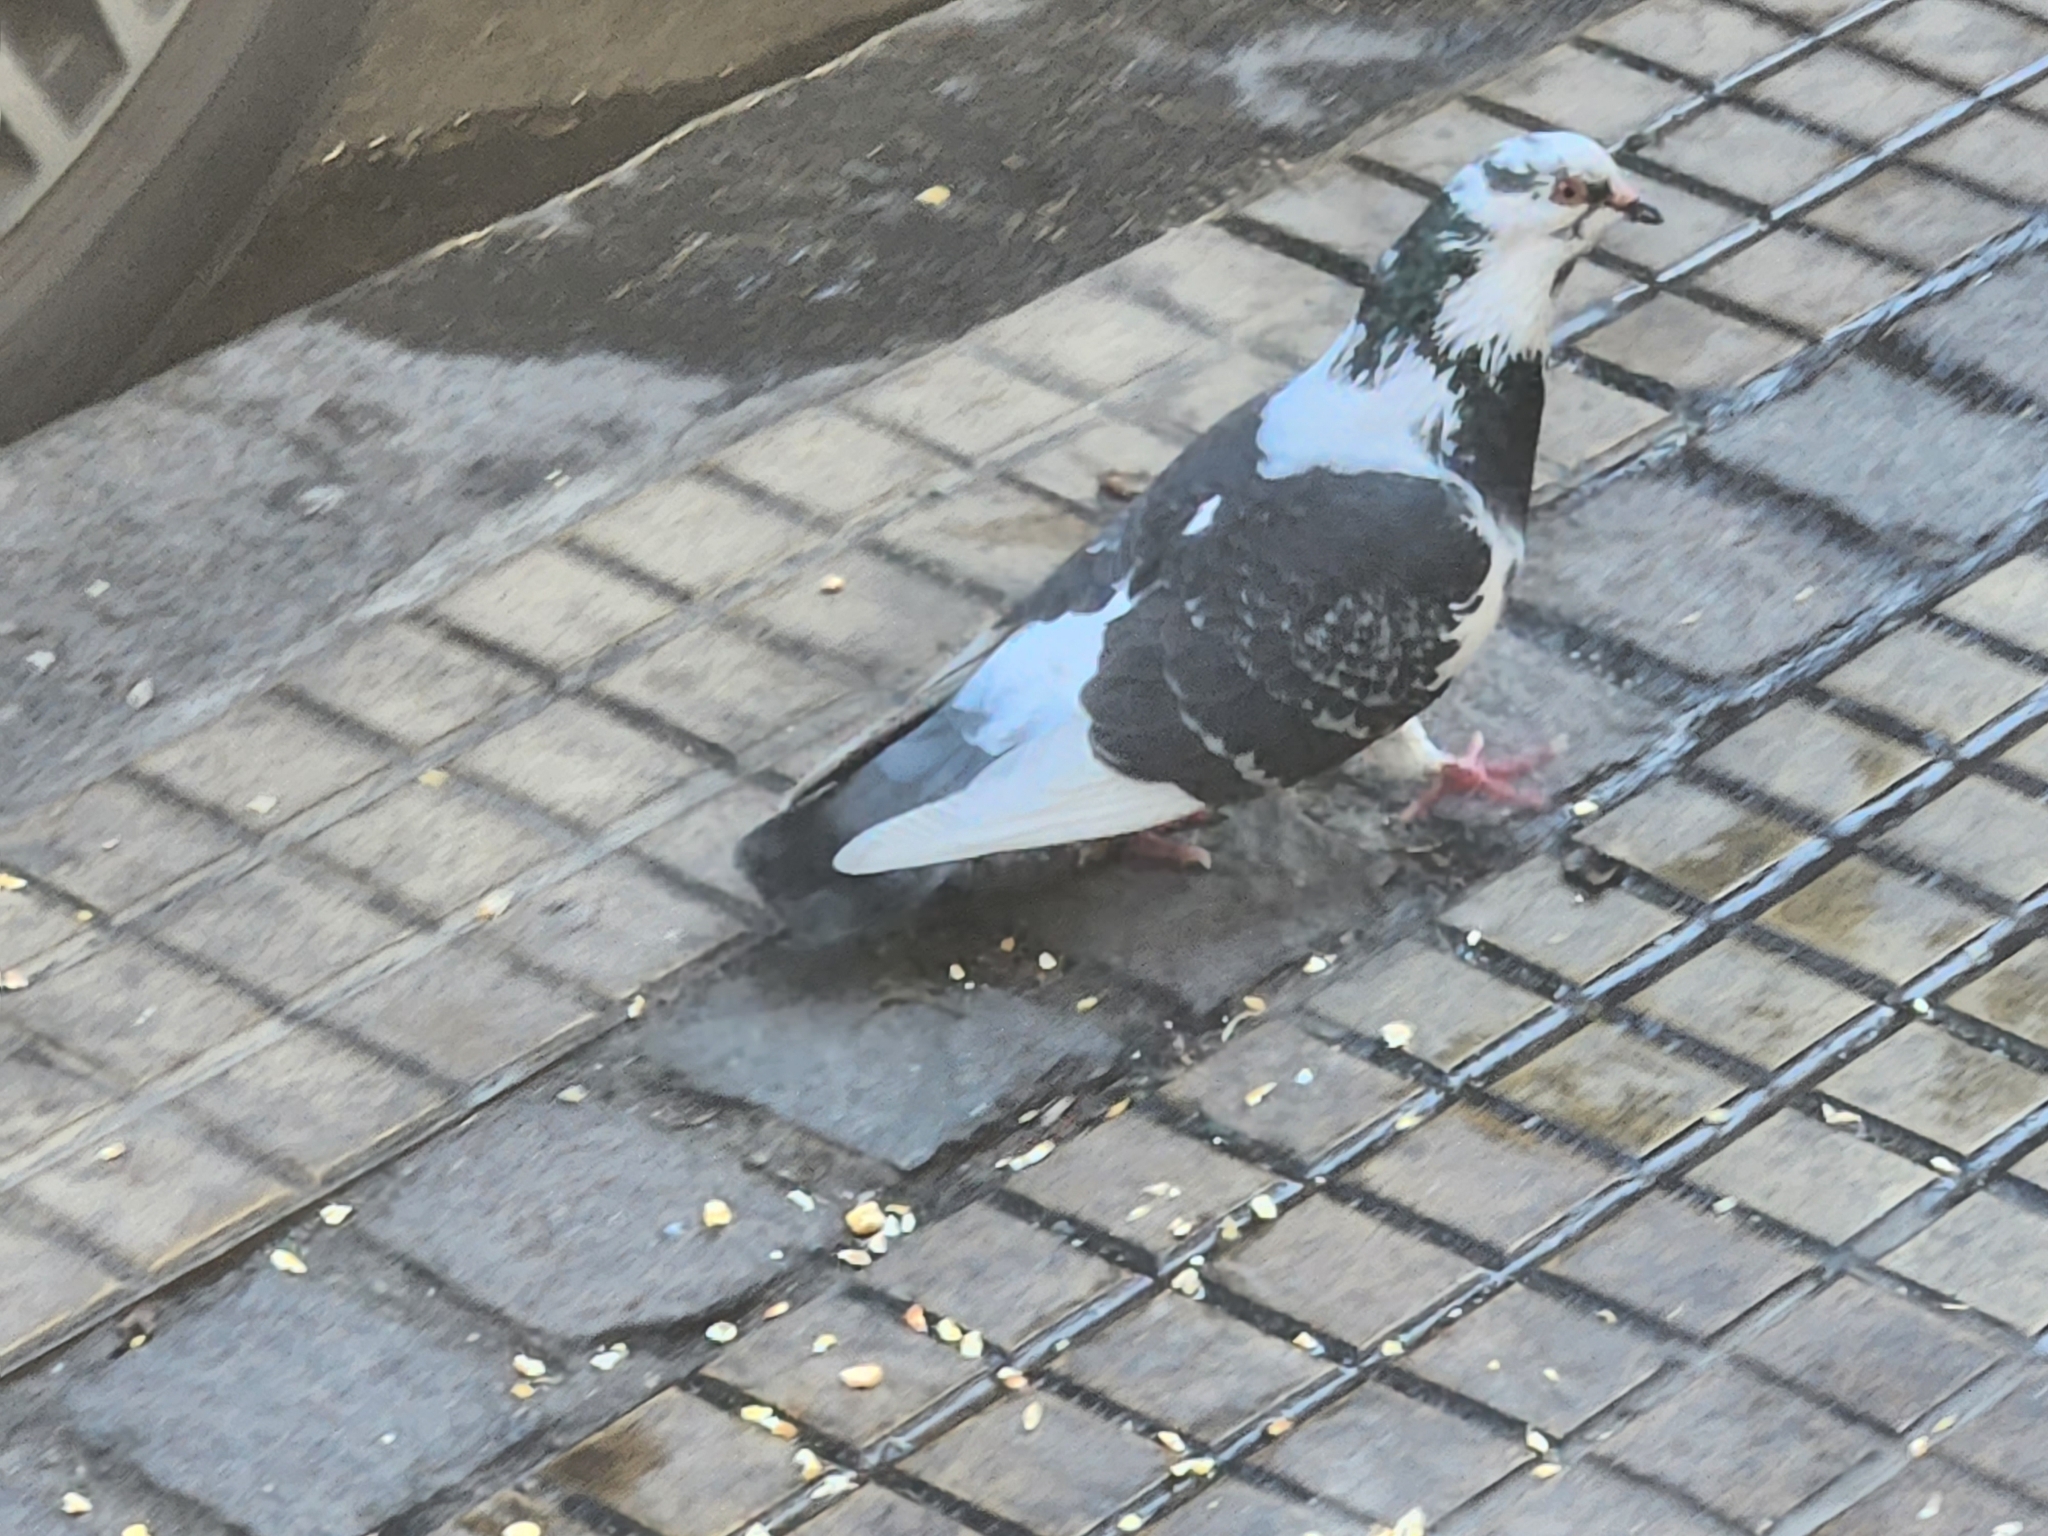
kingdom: Animalia
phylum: Chordata
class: Aves
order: Columbiformes
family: Columbidae
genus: Columba
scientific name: Columba livia
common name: Rock pigeon
